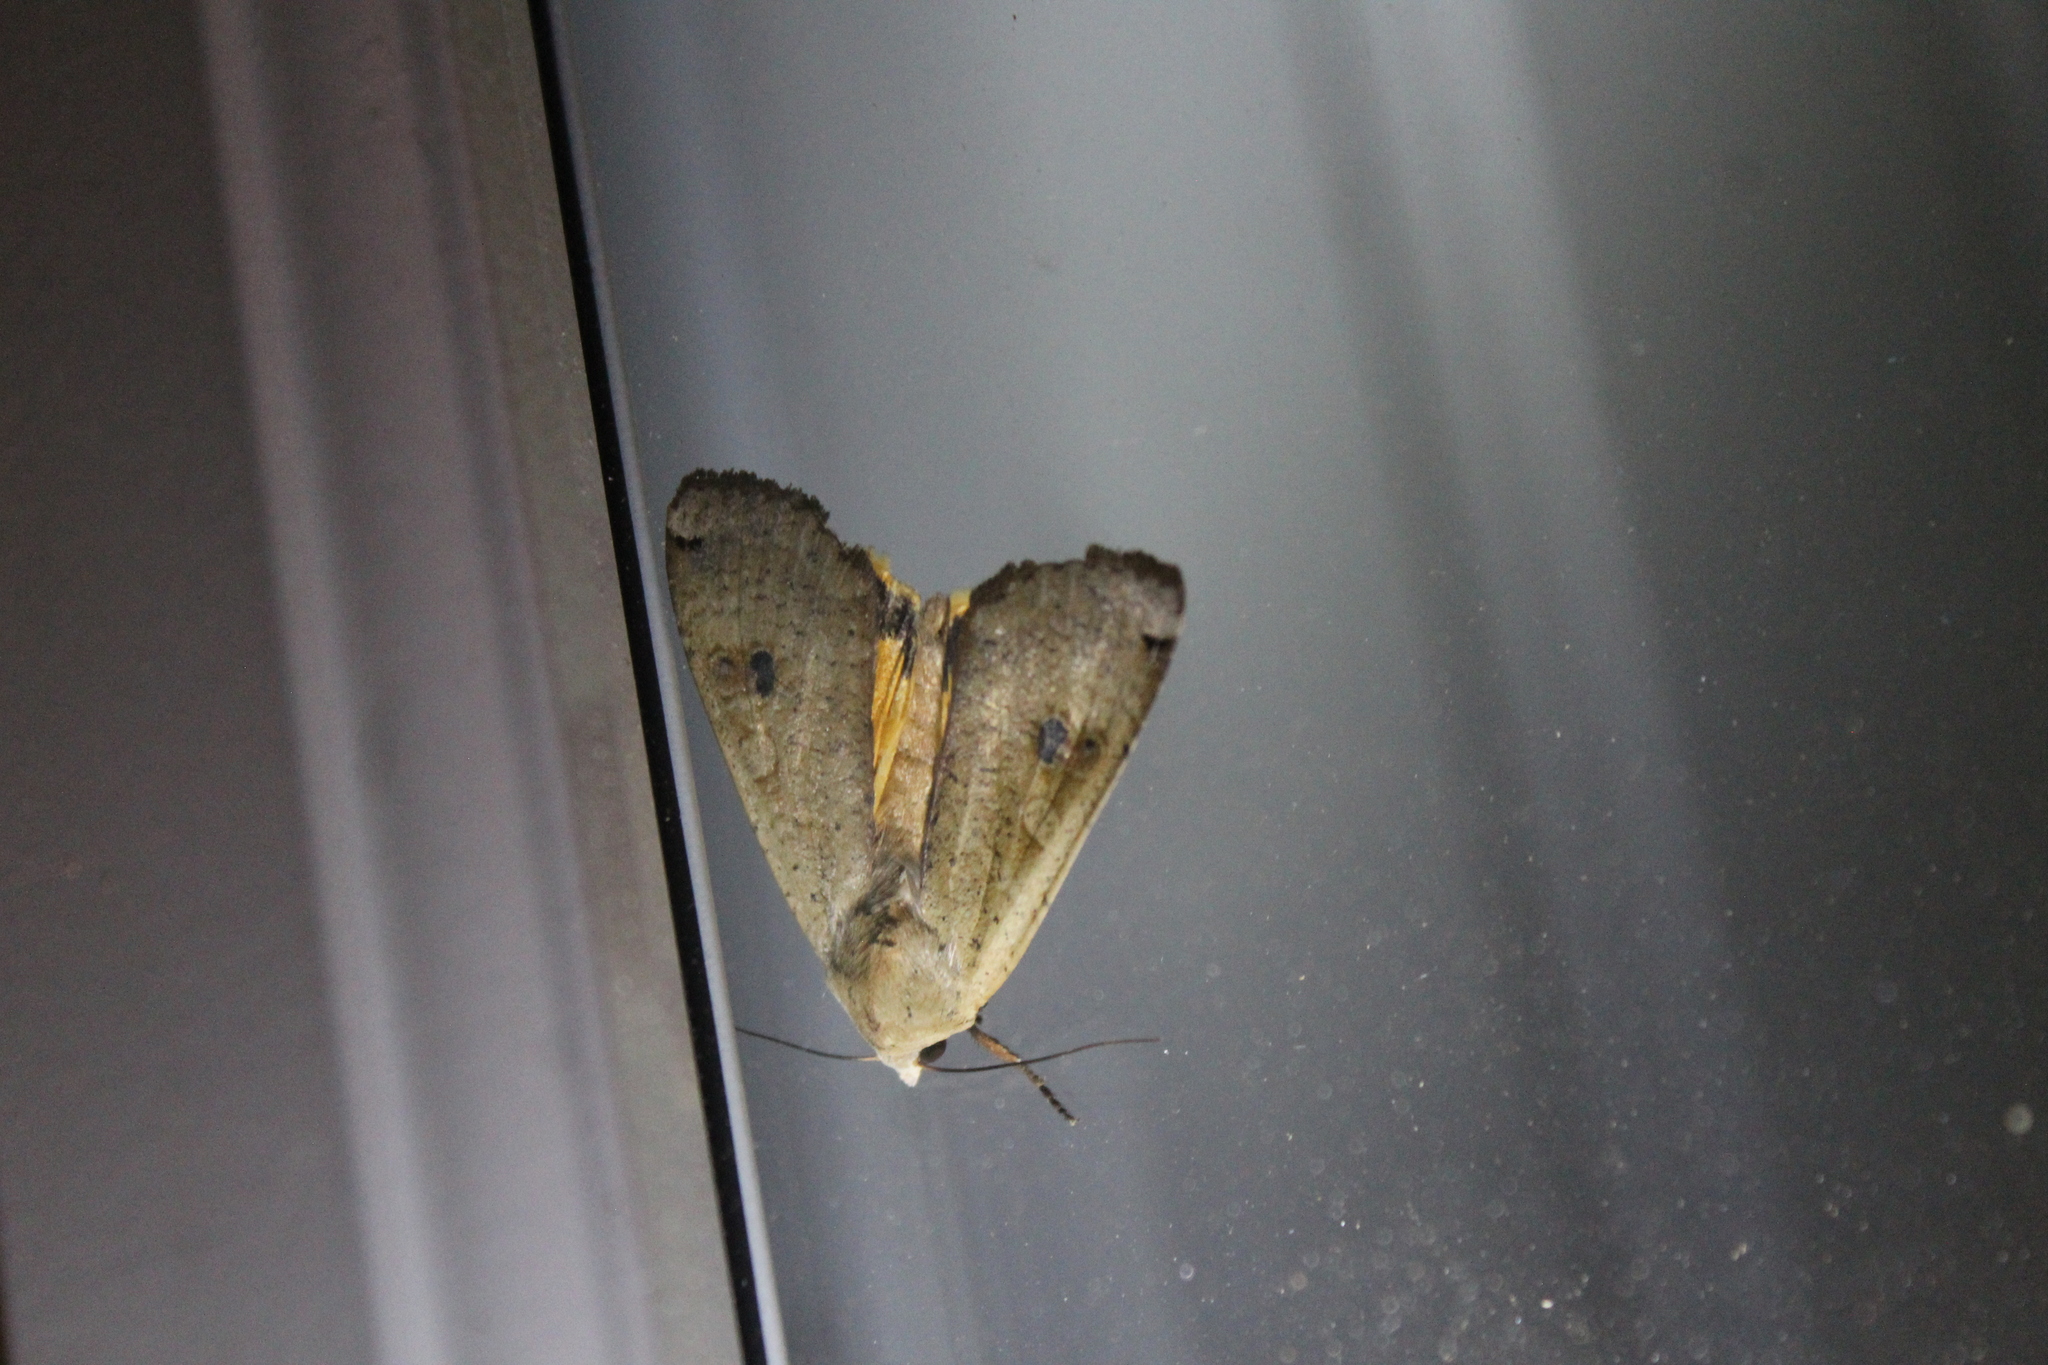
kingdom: Animalia
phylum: Arthropoda
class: Insecta
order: Lepidoptera
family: Noctuidae
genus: Noctua
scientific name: Noctua pronuba
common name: Large yellow underwing
